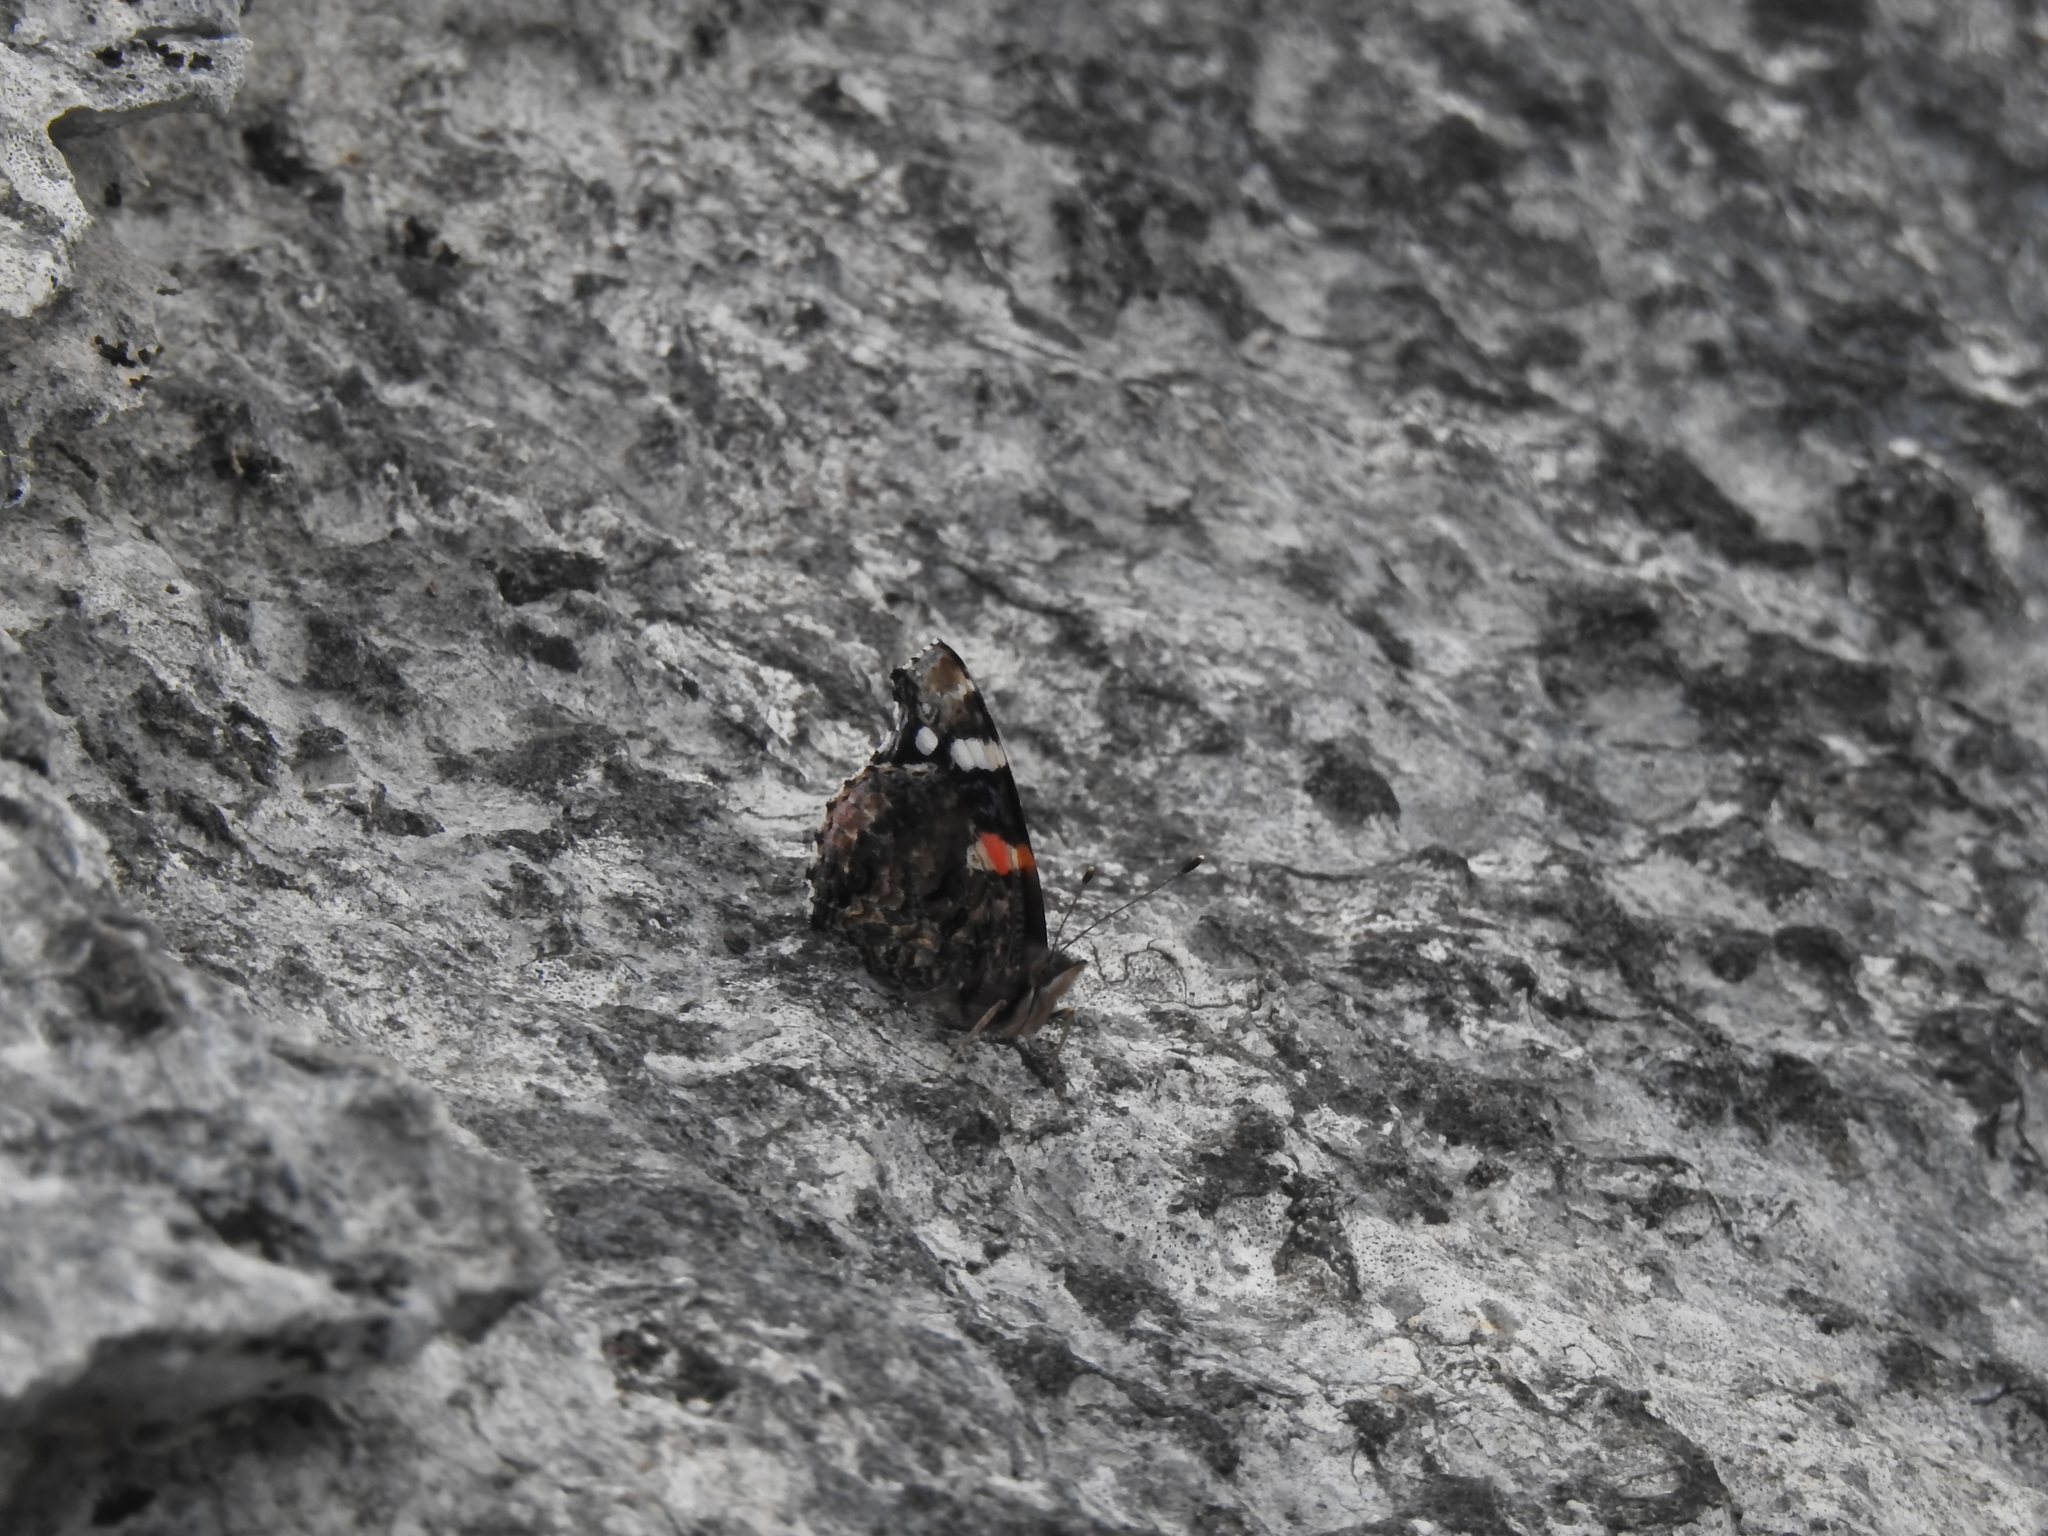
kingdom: Animalia
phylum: Arthropoda
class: Insecta
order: Lepidoptera
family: Nymphalidae
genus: Vanessa
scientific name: Vanessa atalanta
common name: Red admiral
